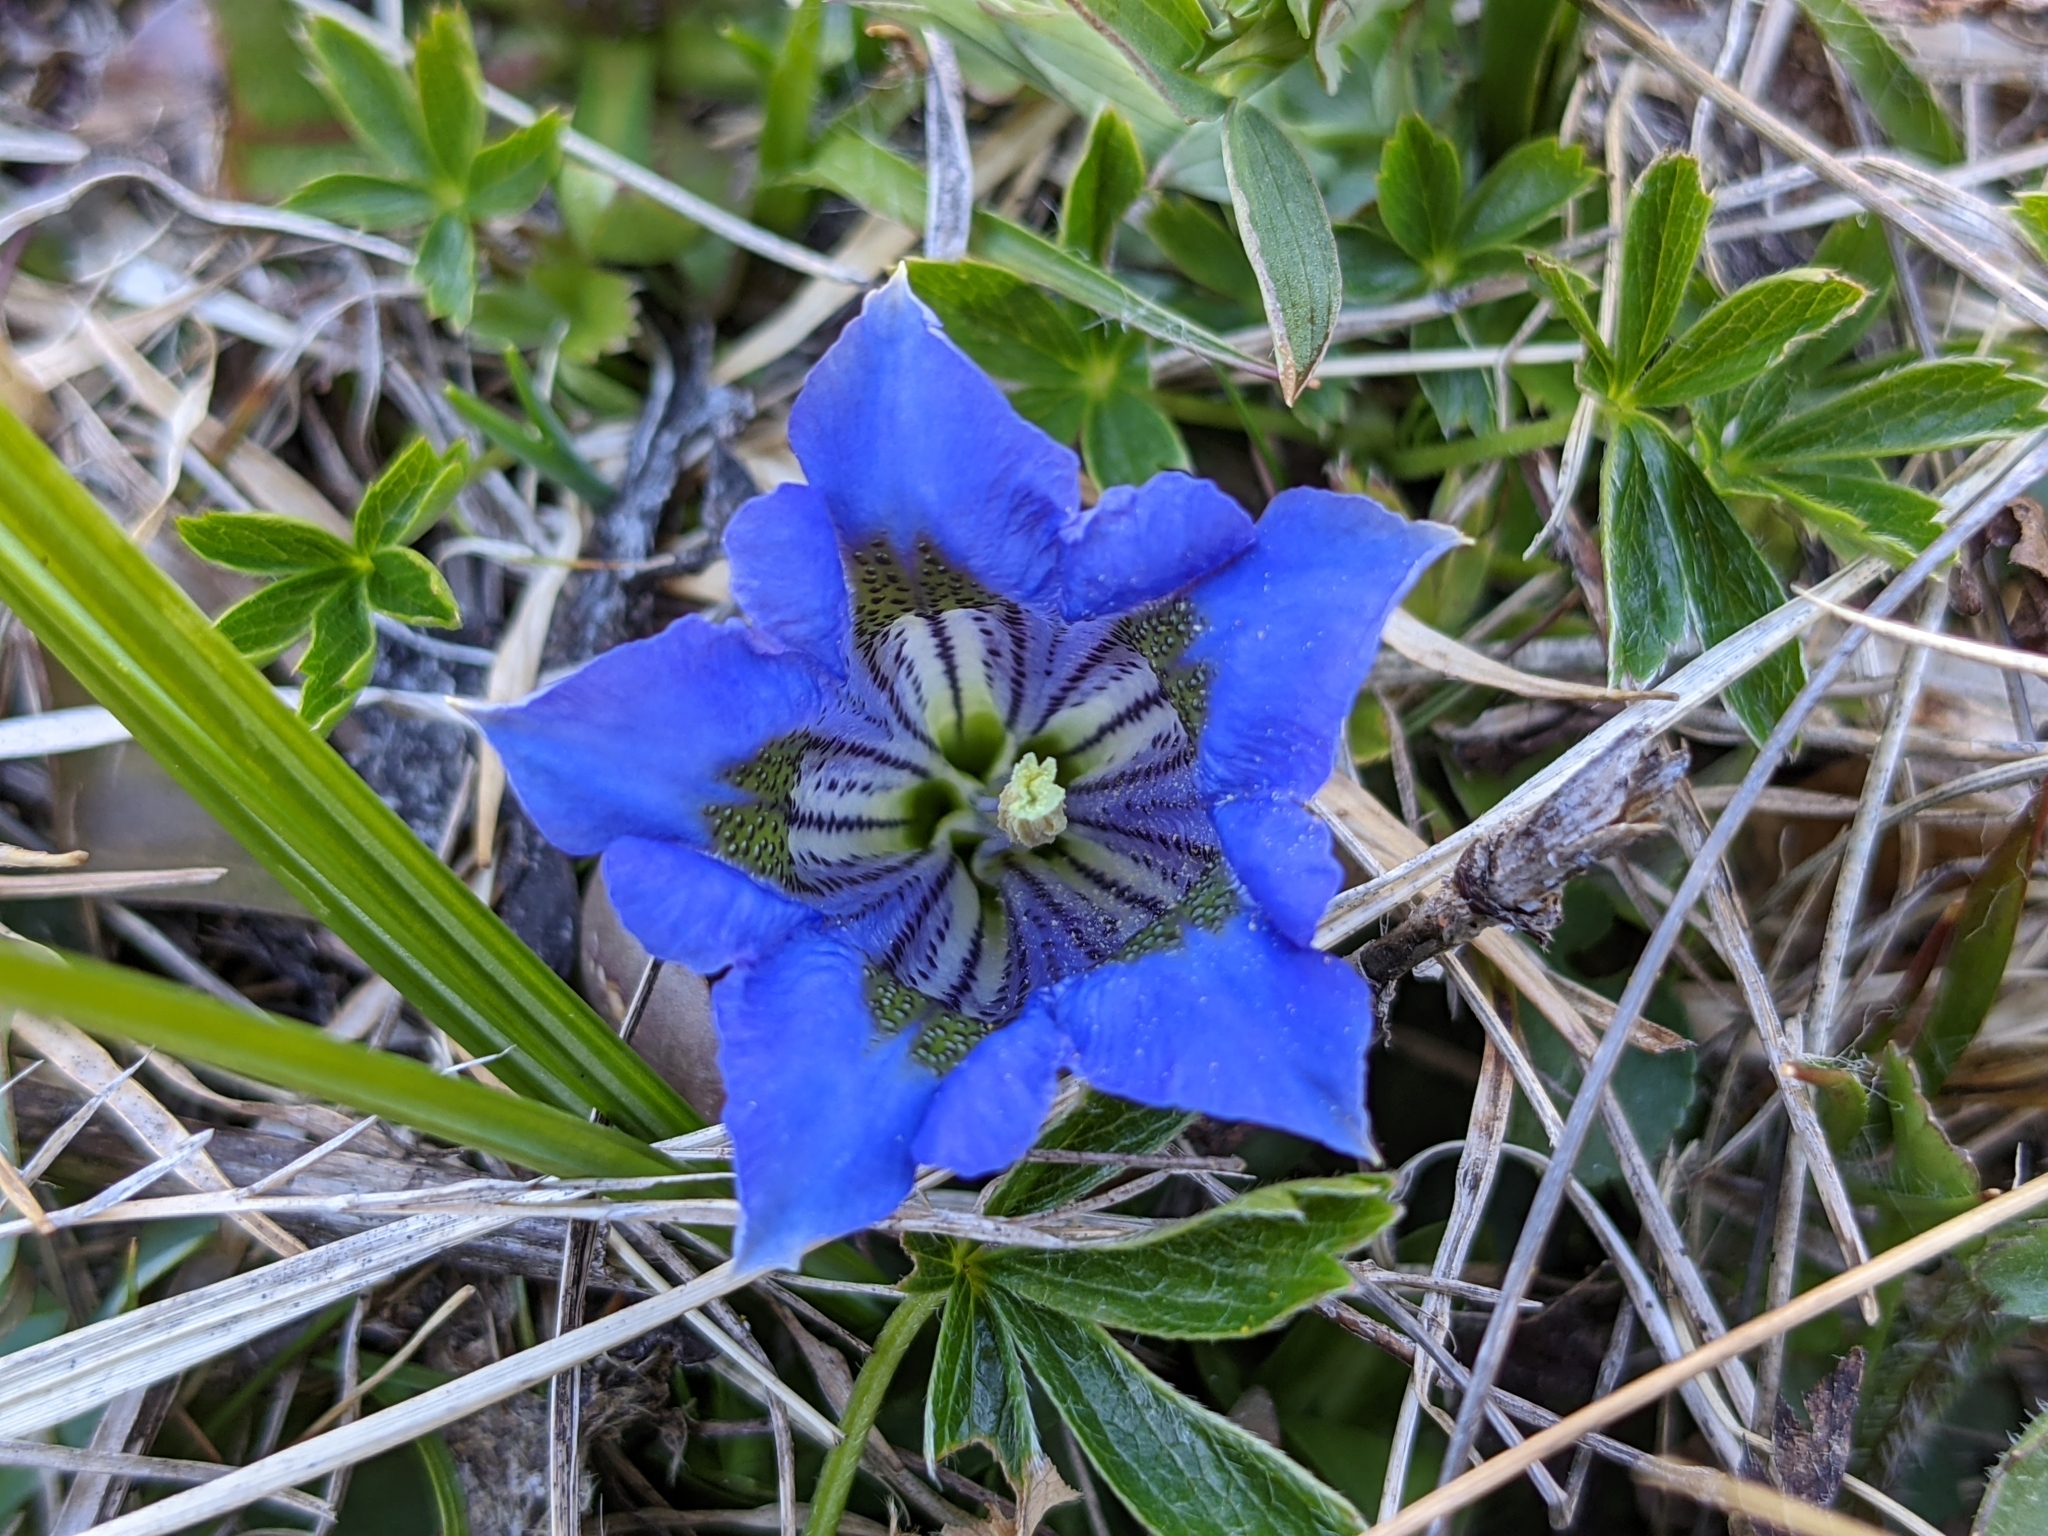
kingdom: Plantae
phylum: Tracheophyta
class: Magnoliopsida
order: Gentianales
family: Gentianaceae
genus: Gentiana
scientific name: Gentiana acaulis
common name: Trumpet gentian
